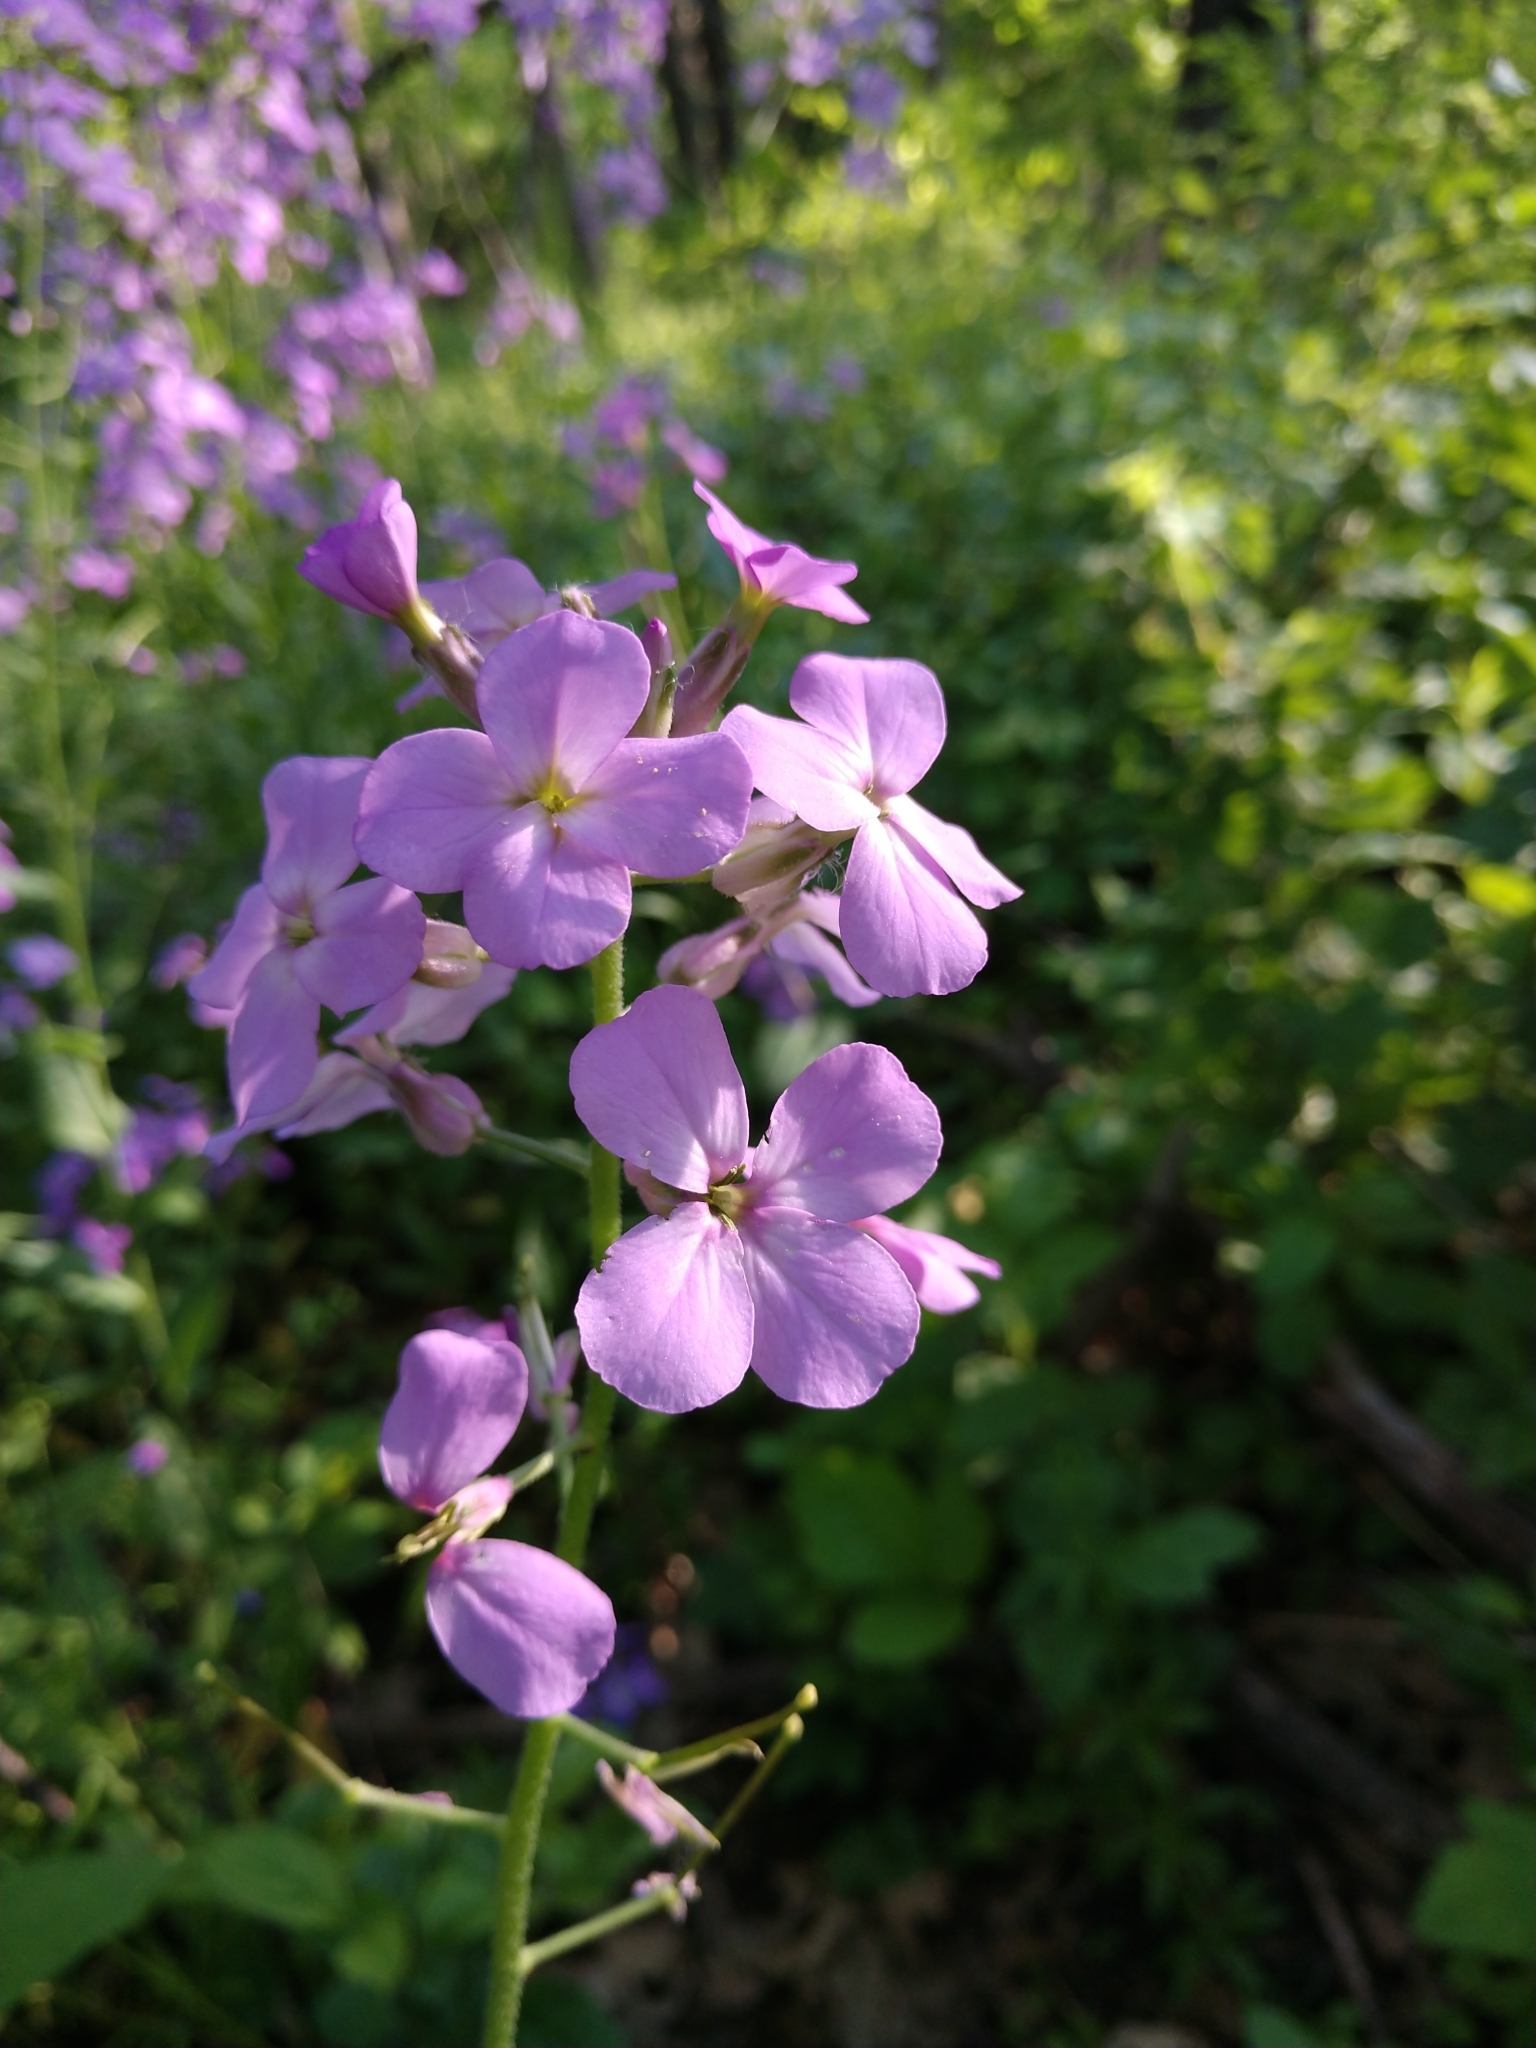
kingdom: Plantae
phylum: Tracheophyta
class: Magnoliopsida
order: Brassicales
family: Brassicaceae
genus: Hesperis
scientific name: Hesperis matronalis
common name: Dame's-violet
